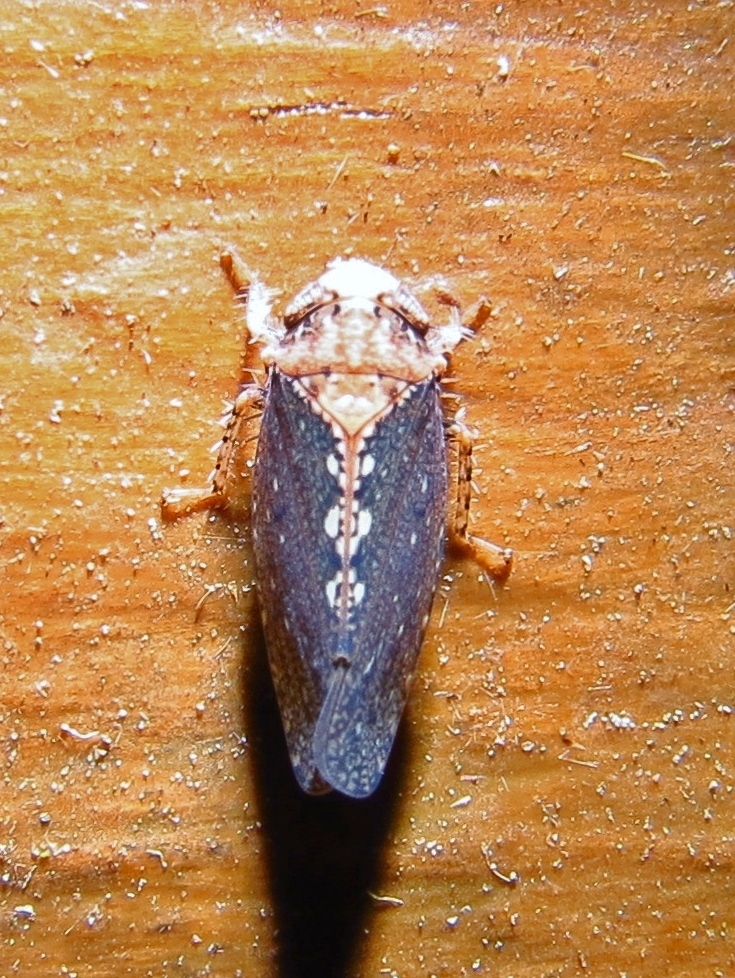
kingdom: Animalia
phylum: Arthropoda
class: Insecta
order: Hemiptera
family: Cicadellidae
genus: Excultanus
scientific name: Excultanus excultus
